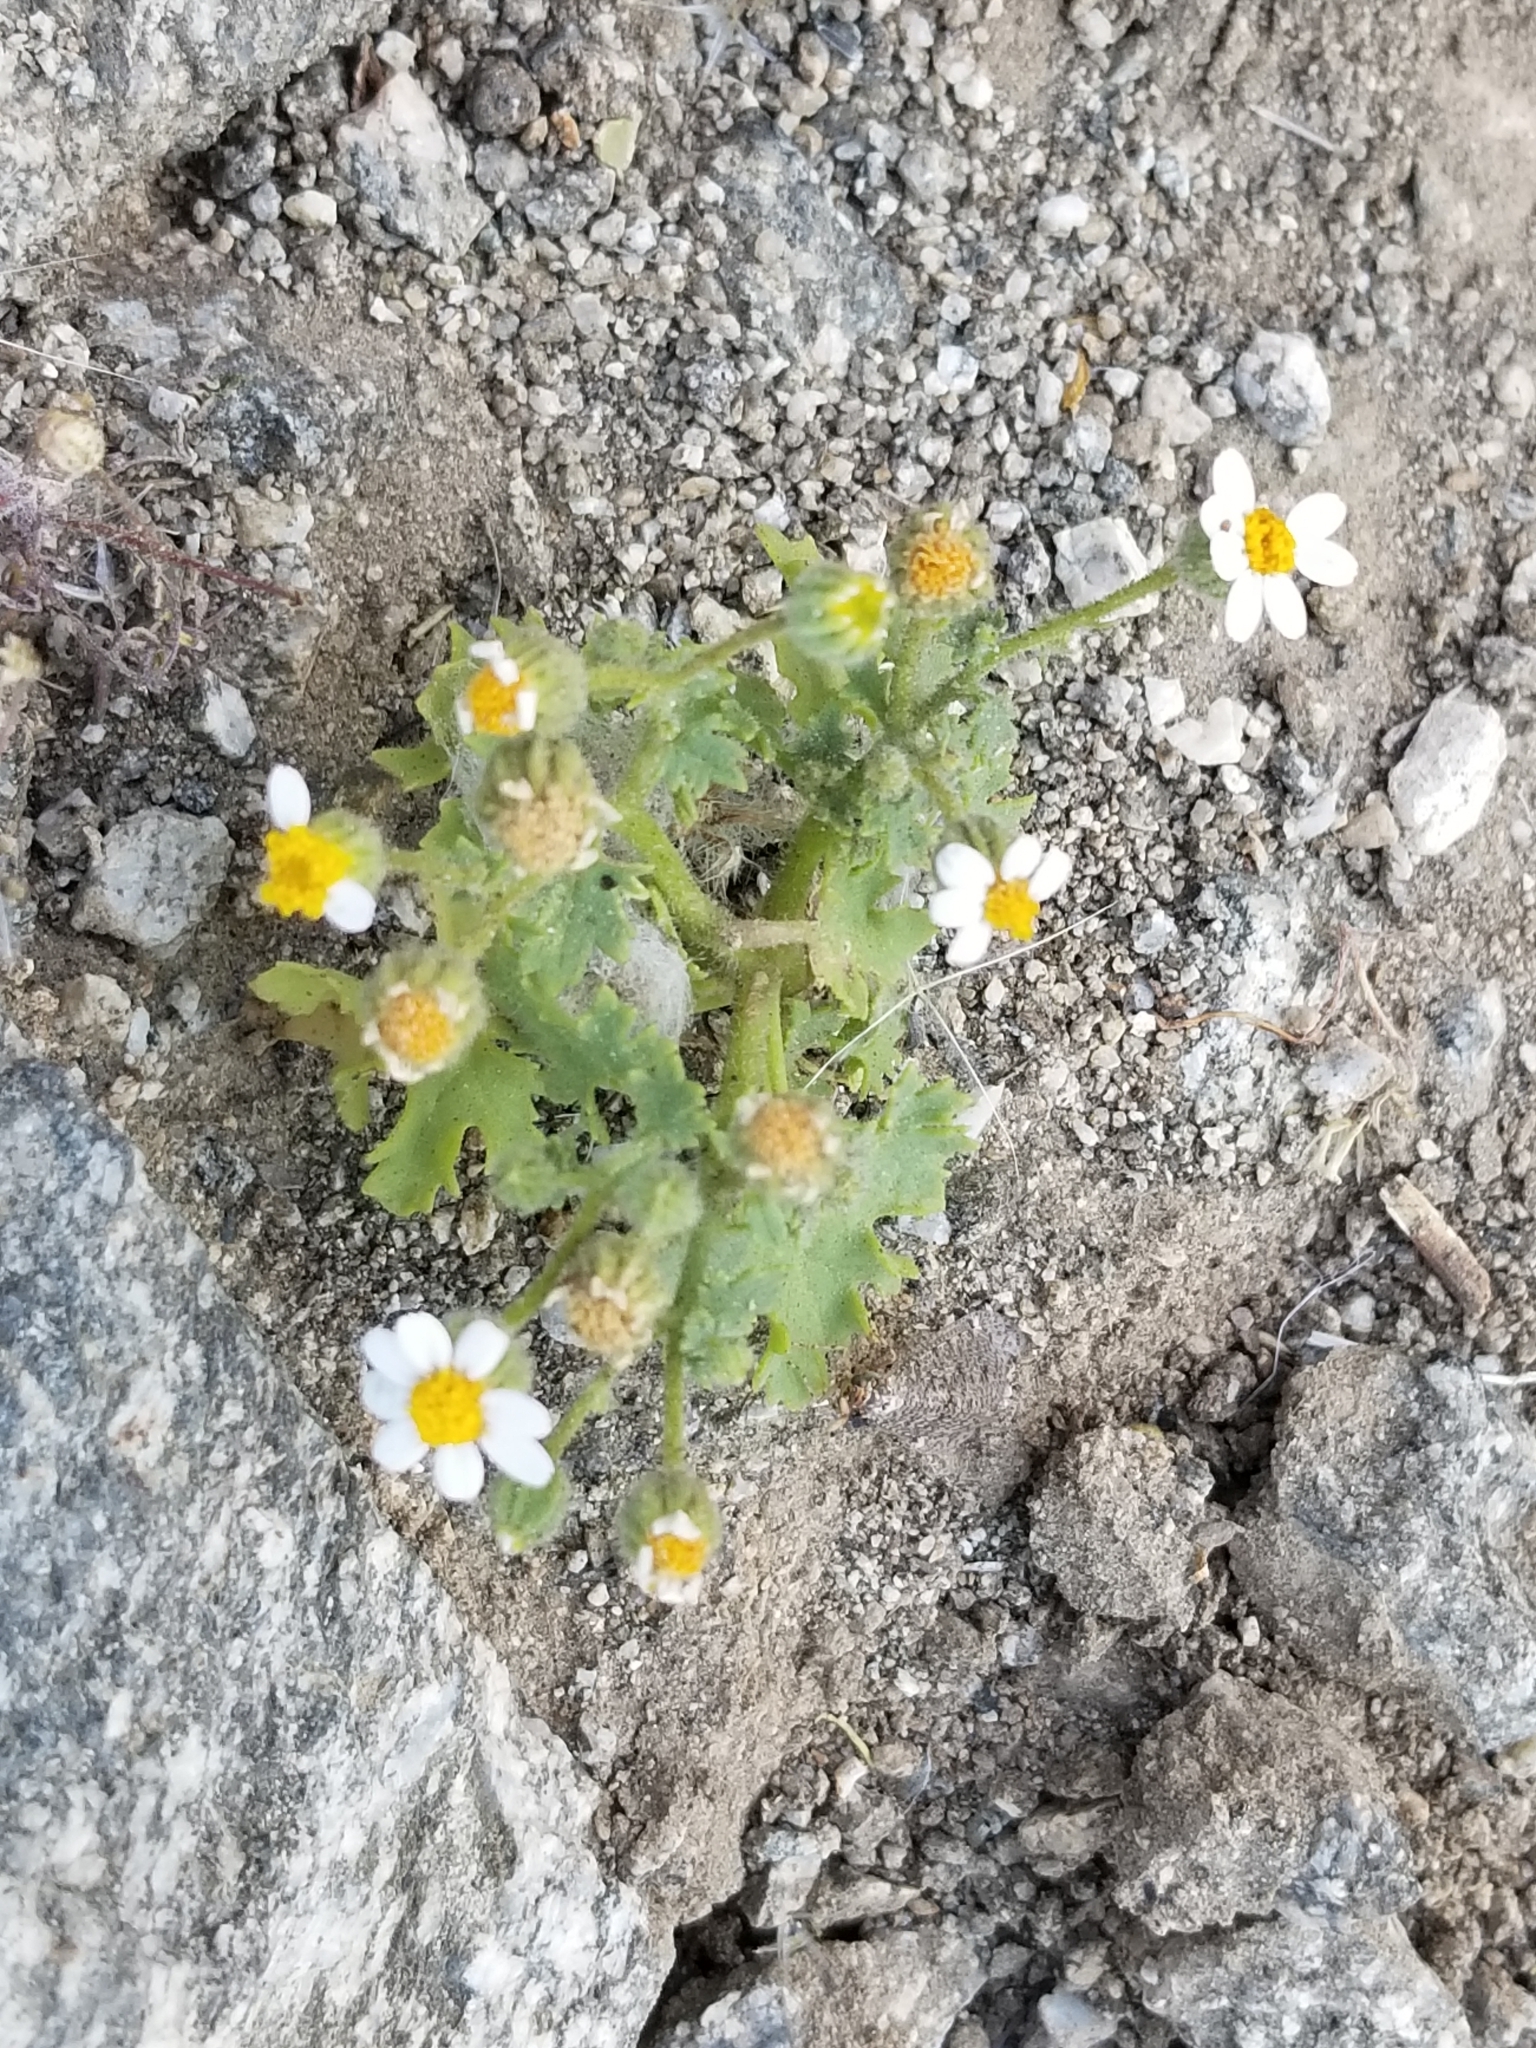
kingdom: Plantae
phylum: Tracheophyta
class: Magnoliopsida
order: Asterales
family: Asteraceae
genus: Laphamia
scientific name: Laphamia emoryi
